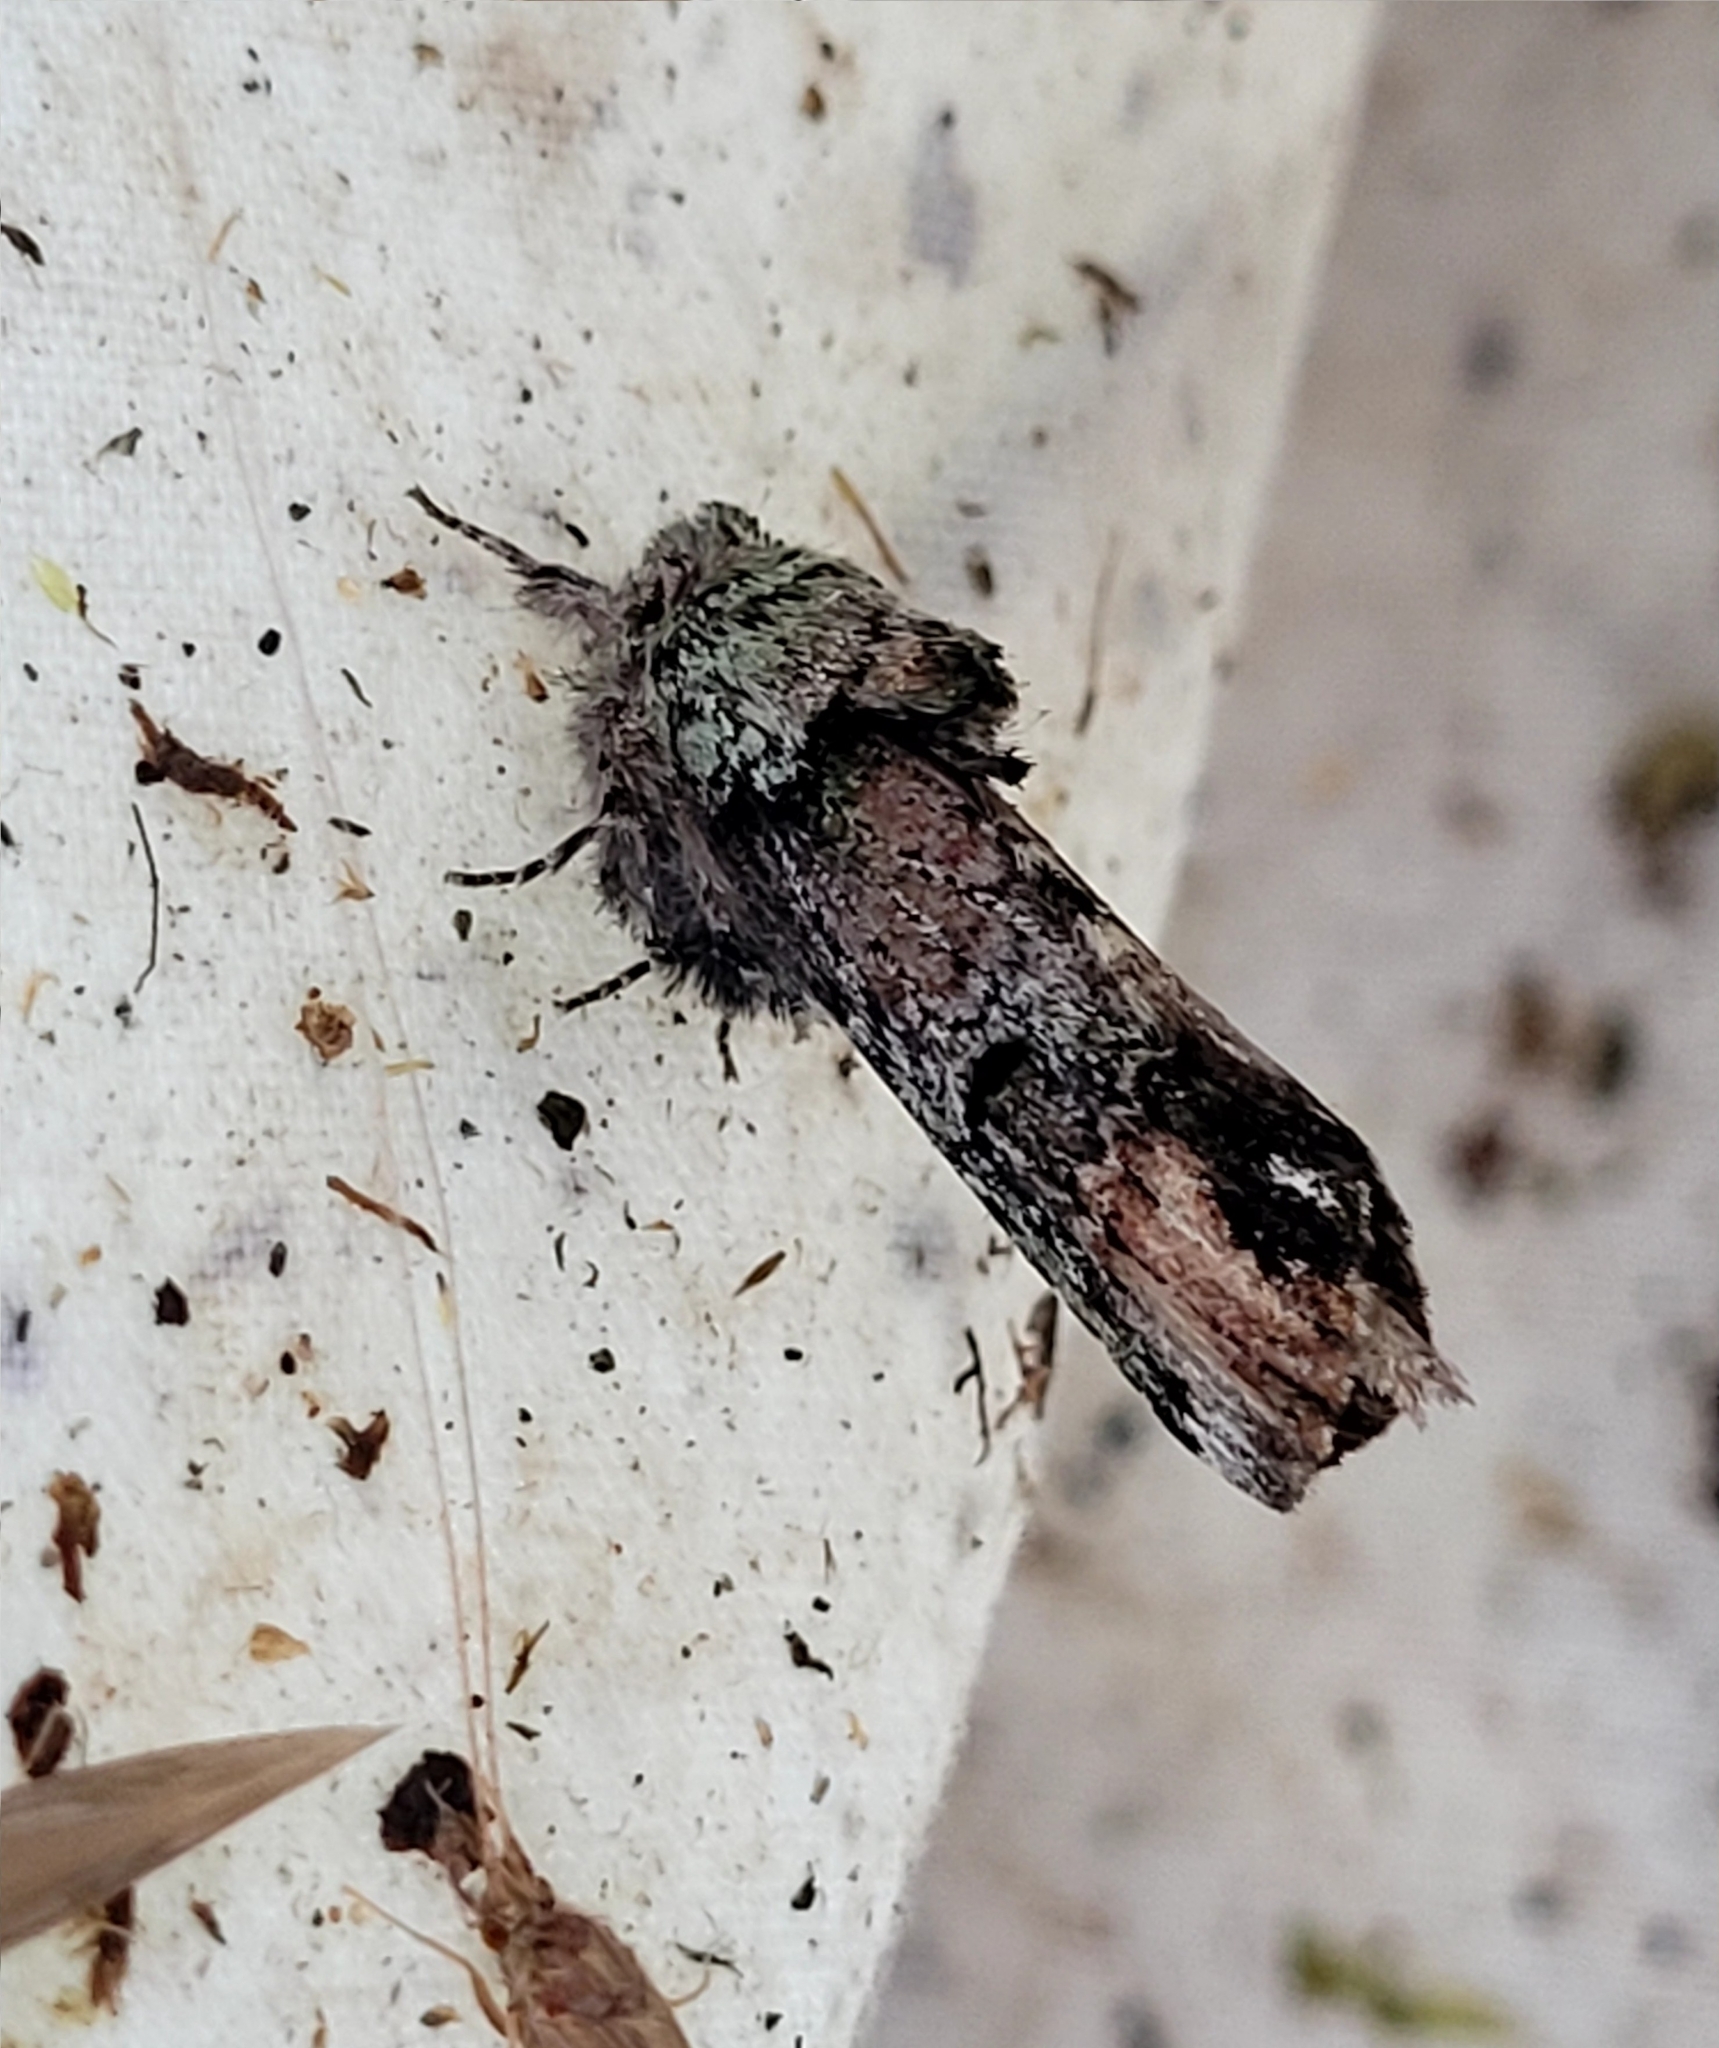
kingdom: Animalia
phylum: Arthropoda
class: Insecta
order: Lepidoptera
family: Notodontidae
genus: Schizura
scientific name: Schizura
